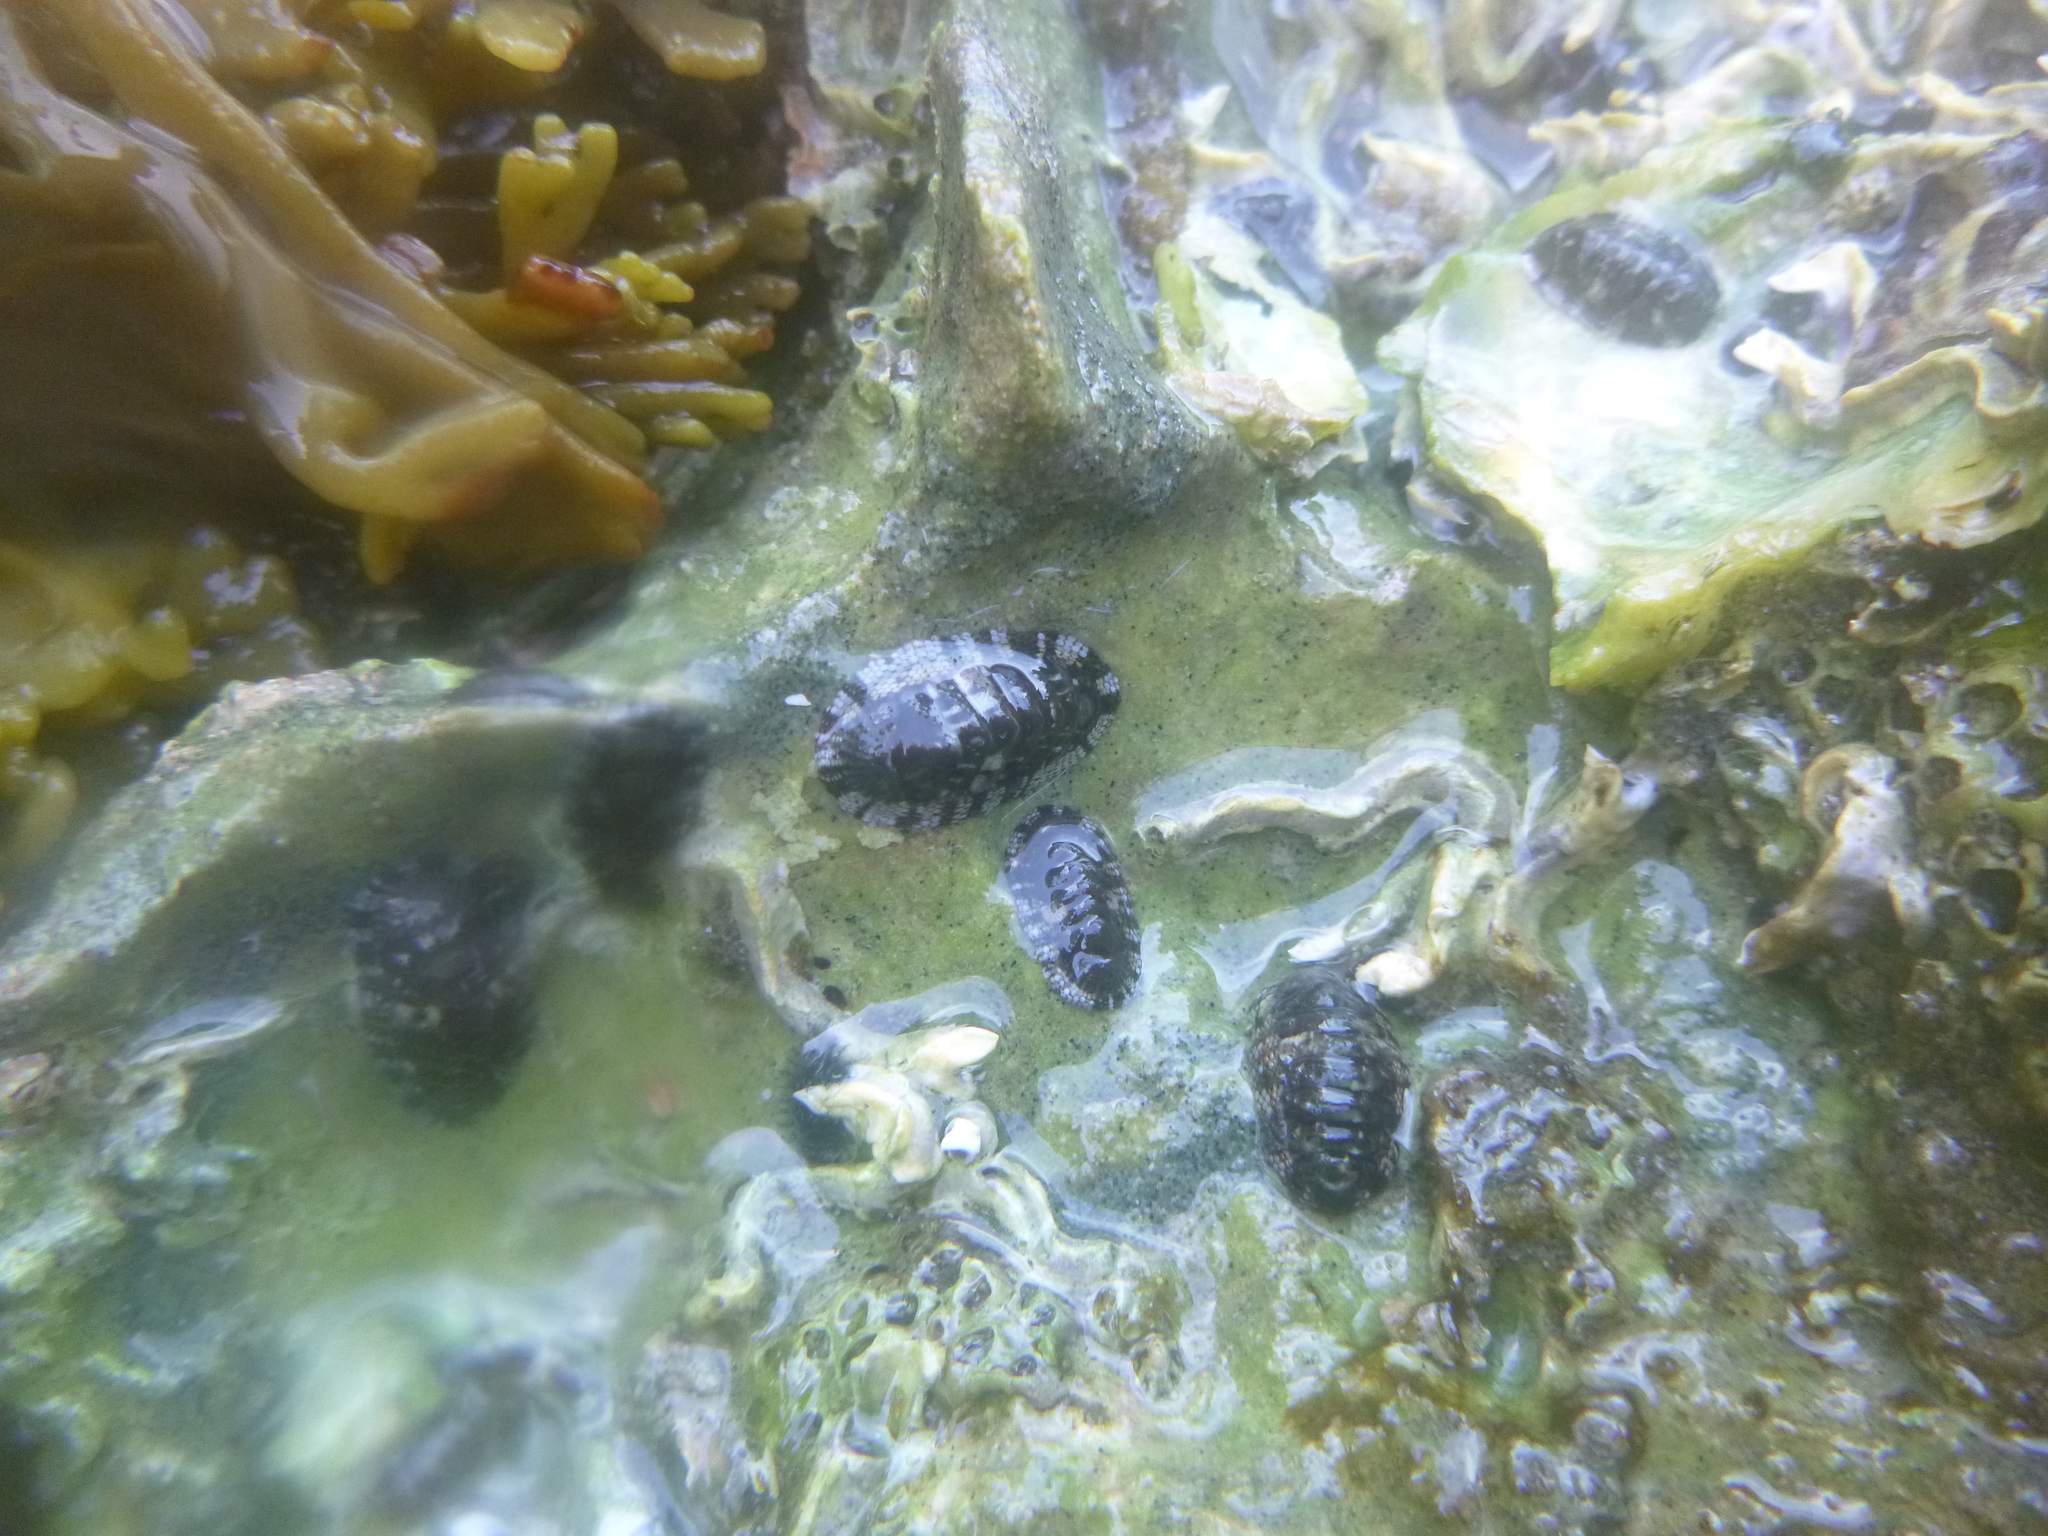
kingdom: Animalia
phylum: Mollusca
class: Polyplacophora
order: Chitonida
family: Chitonidae
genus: Sypharochiton
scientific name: Sypharochiton sinclairi
